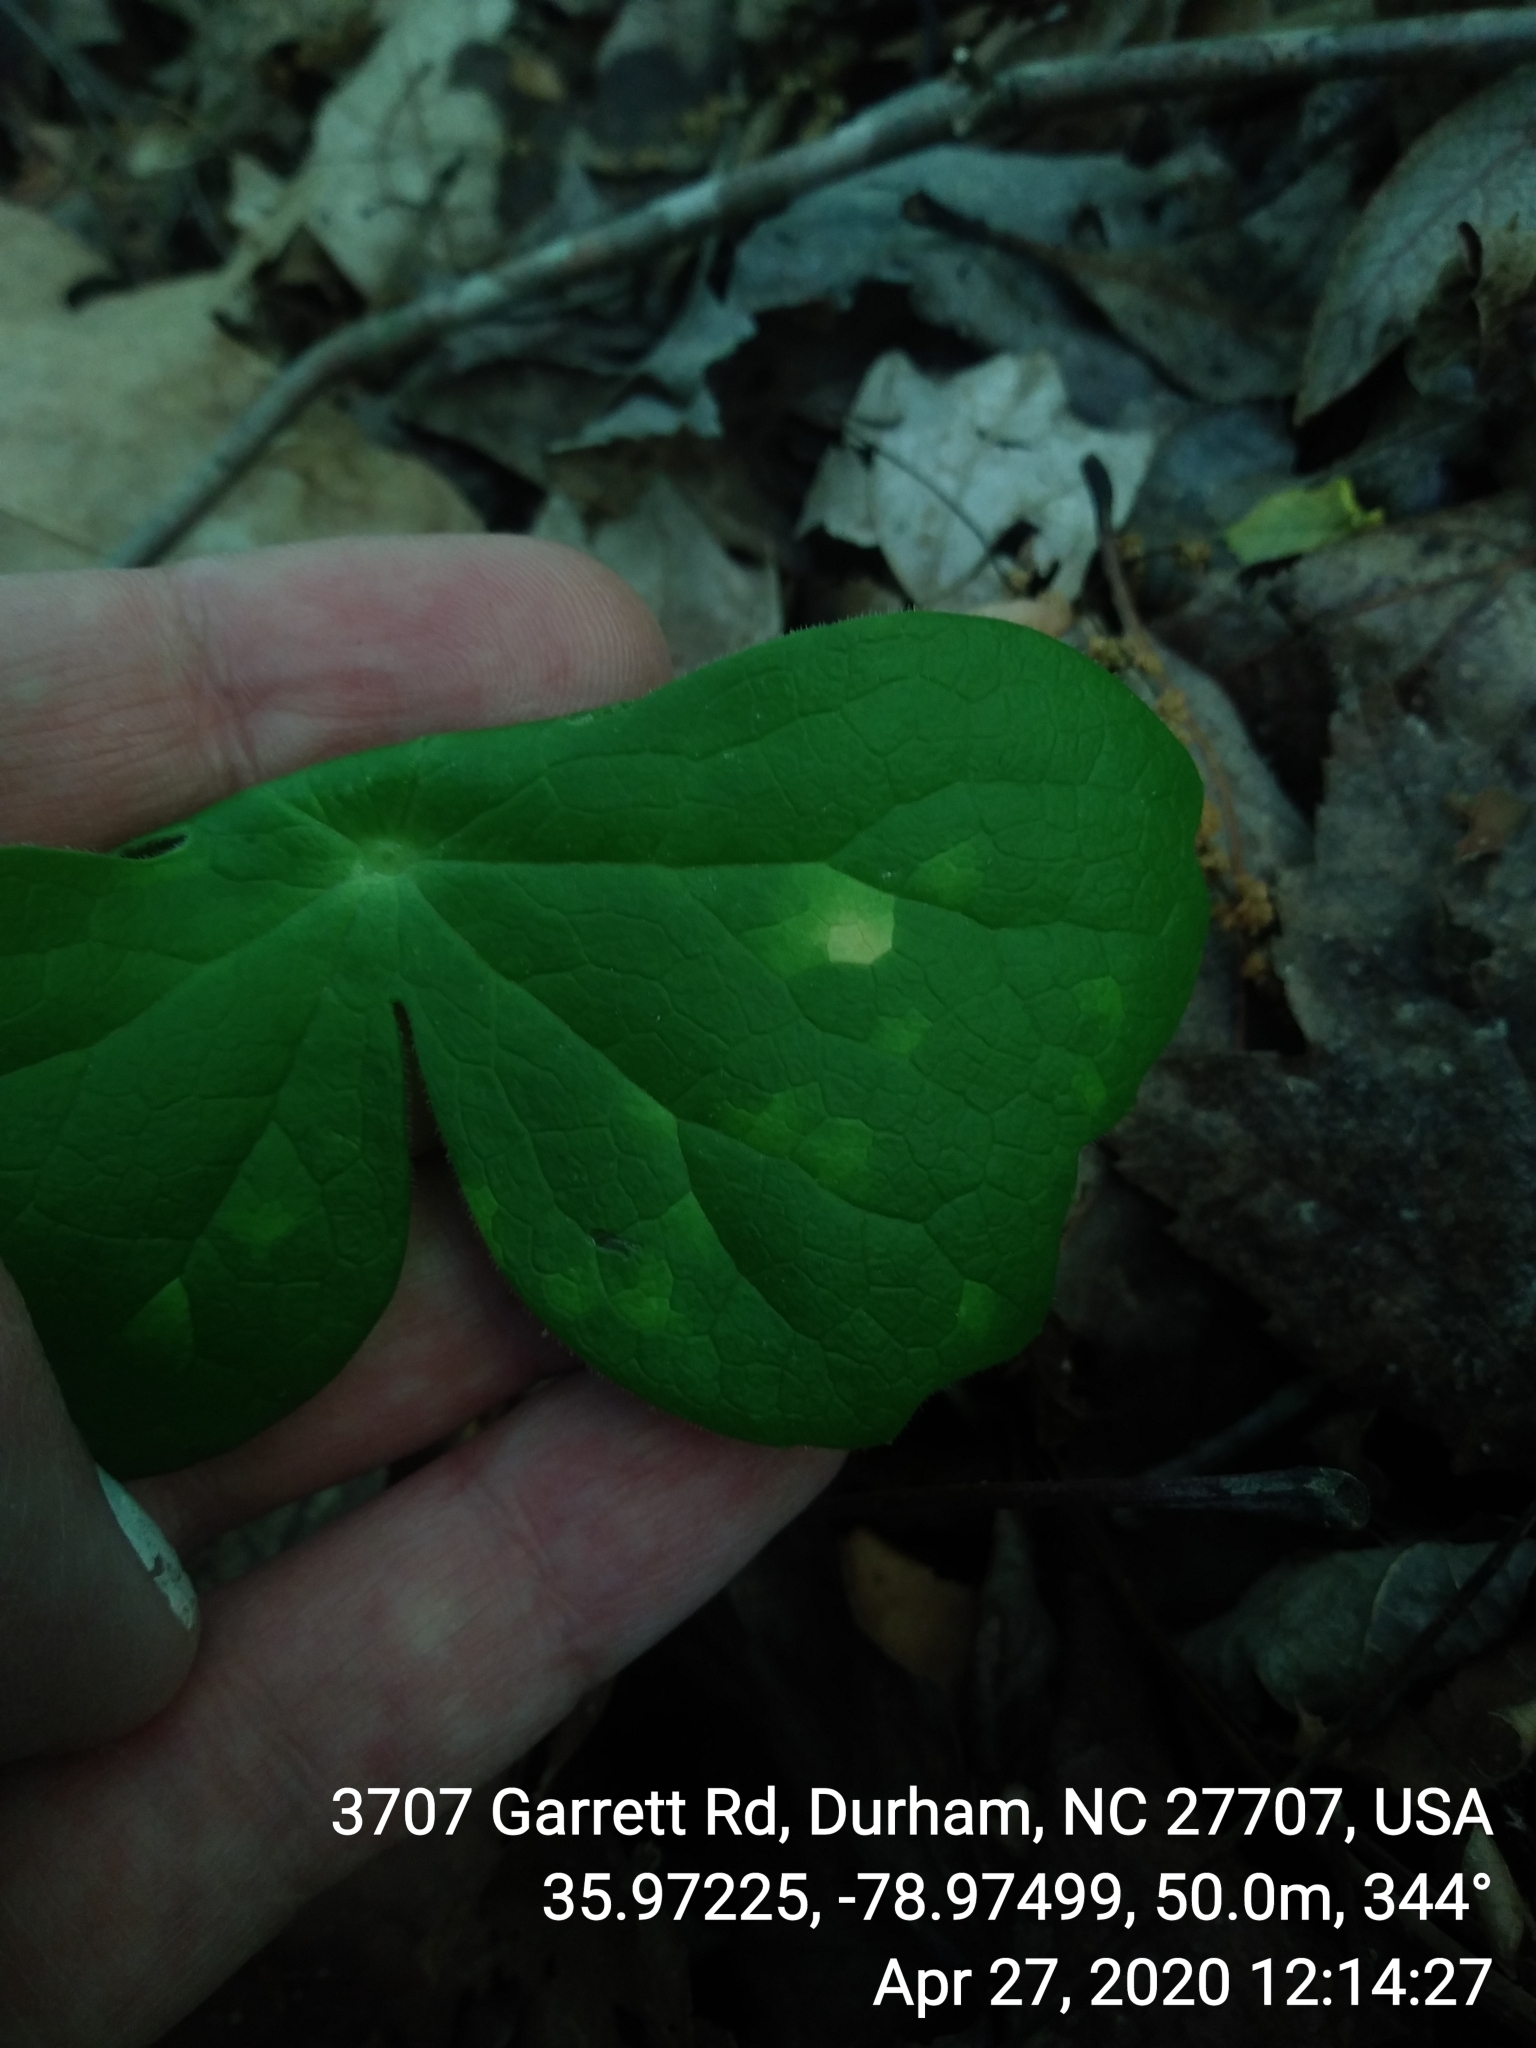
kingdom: Fungi
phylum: Basidiomycota
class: Pucciniomycetes
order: Pucciniales
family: Pucciniaceae
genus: Puccinia
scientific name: Puccinia podophylli
